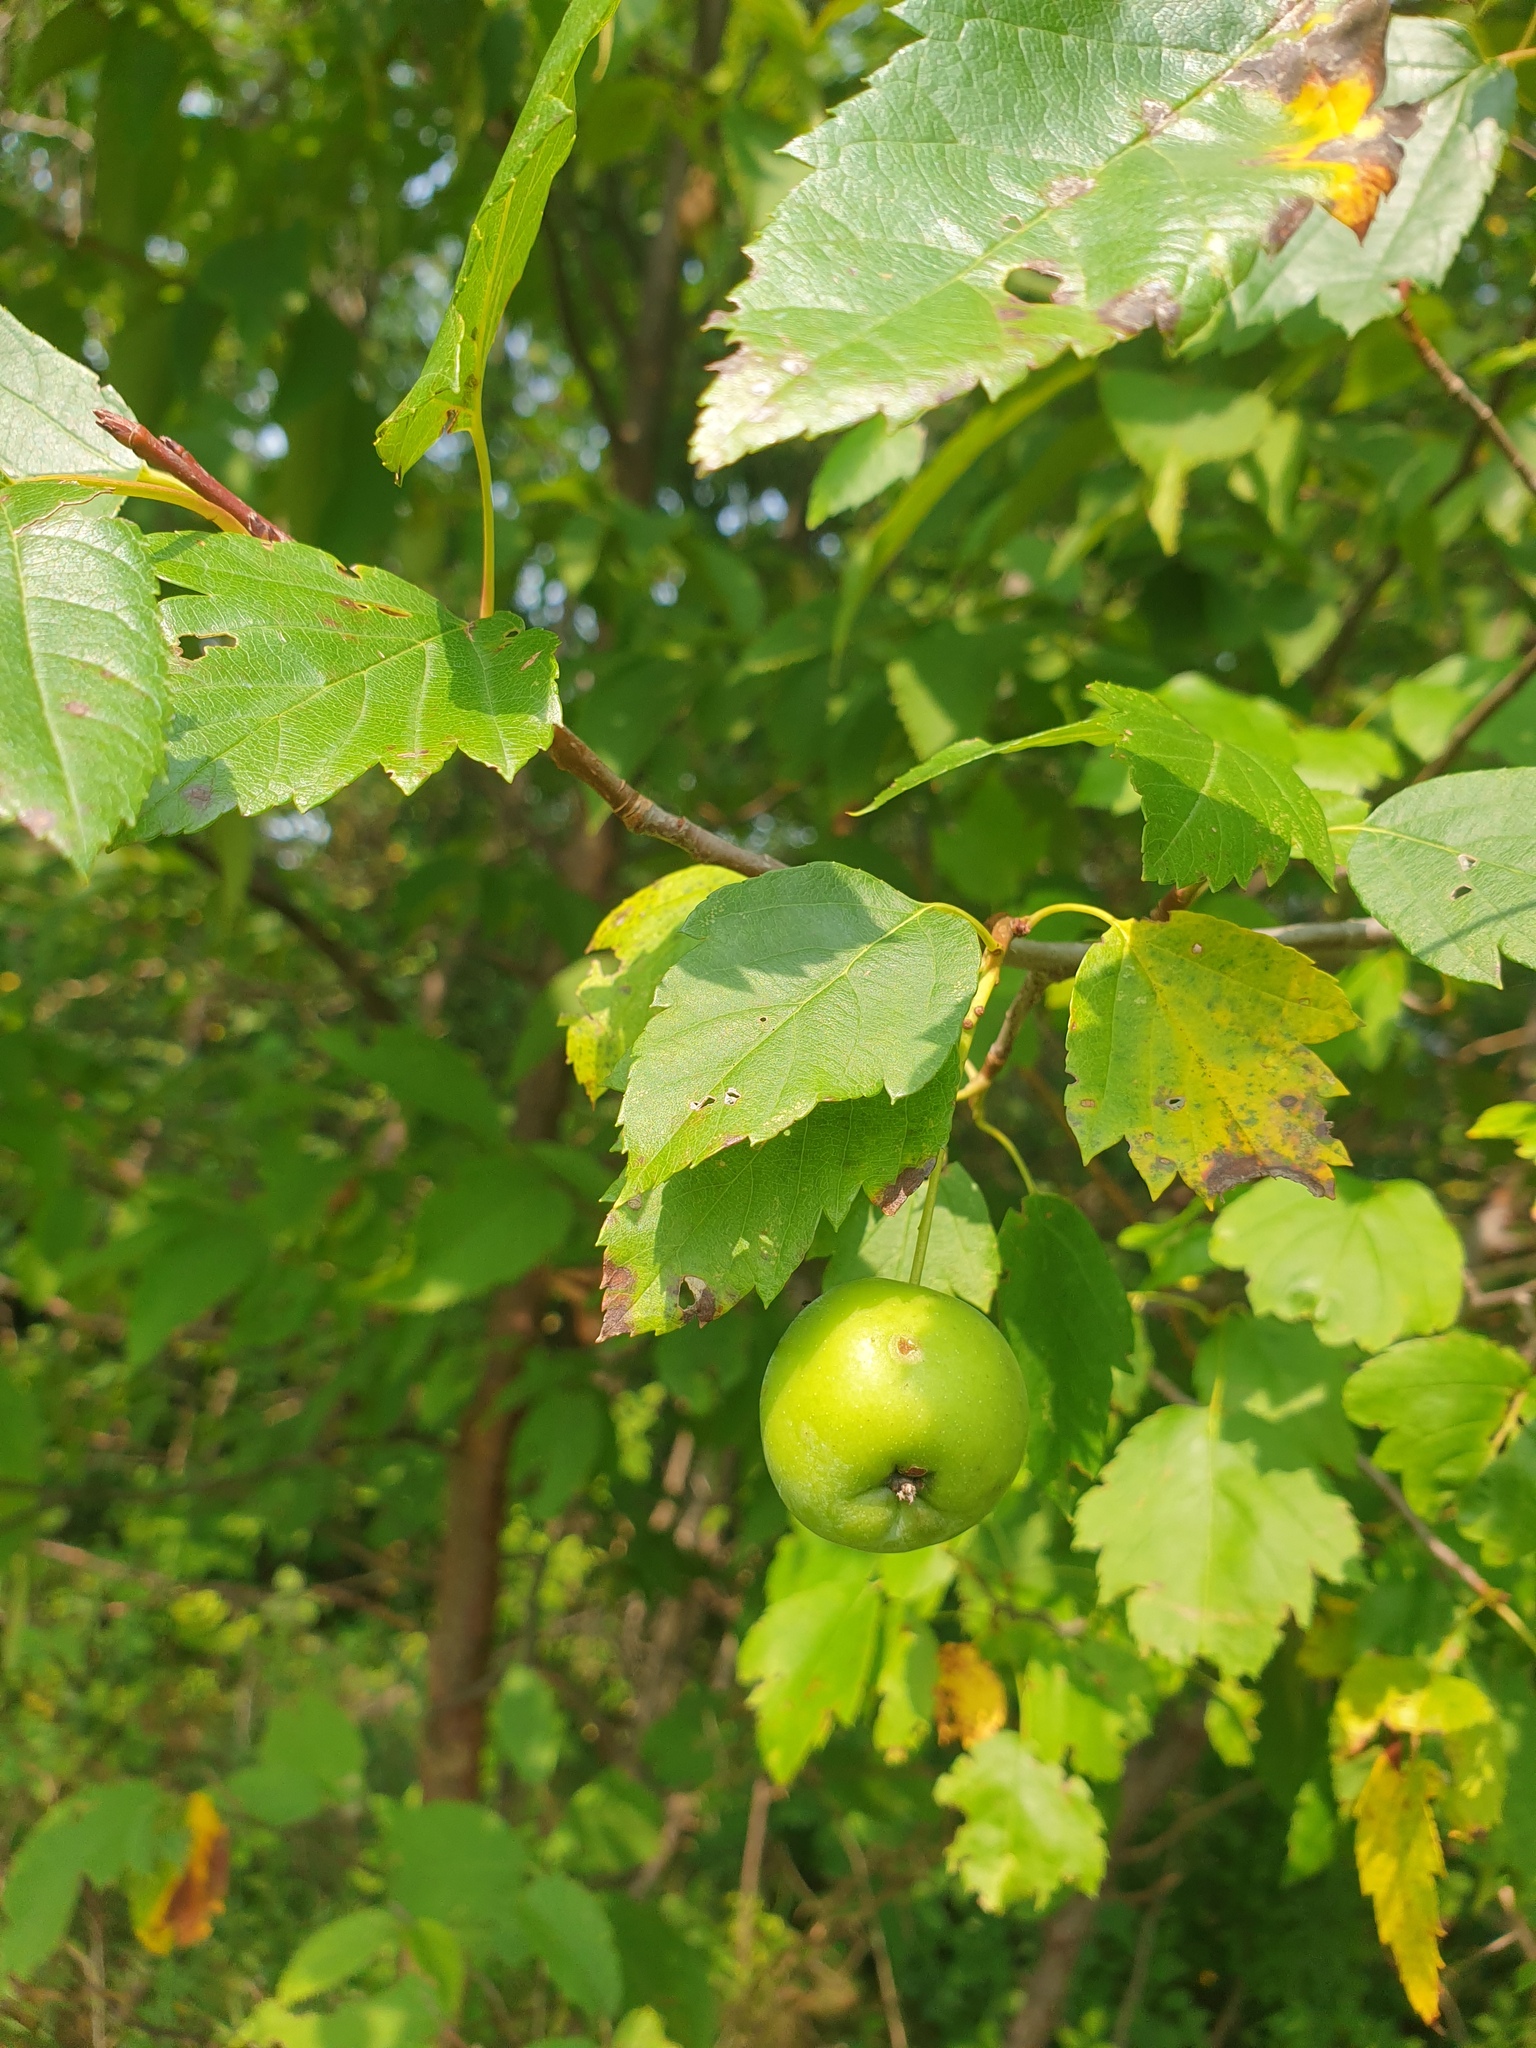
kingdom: Plantae
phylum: Tracheophyta
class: Magnoliopsida
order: Rosales
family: Rosaceae
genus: Malus
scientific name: Malus coronaria
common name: Sweet crab apple
